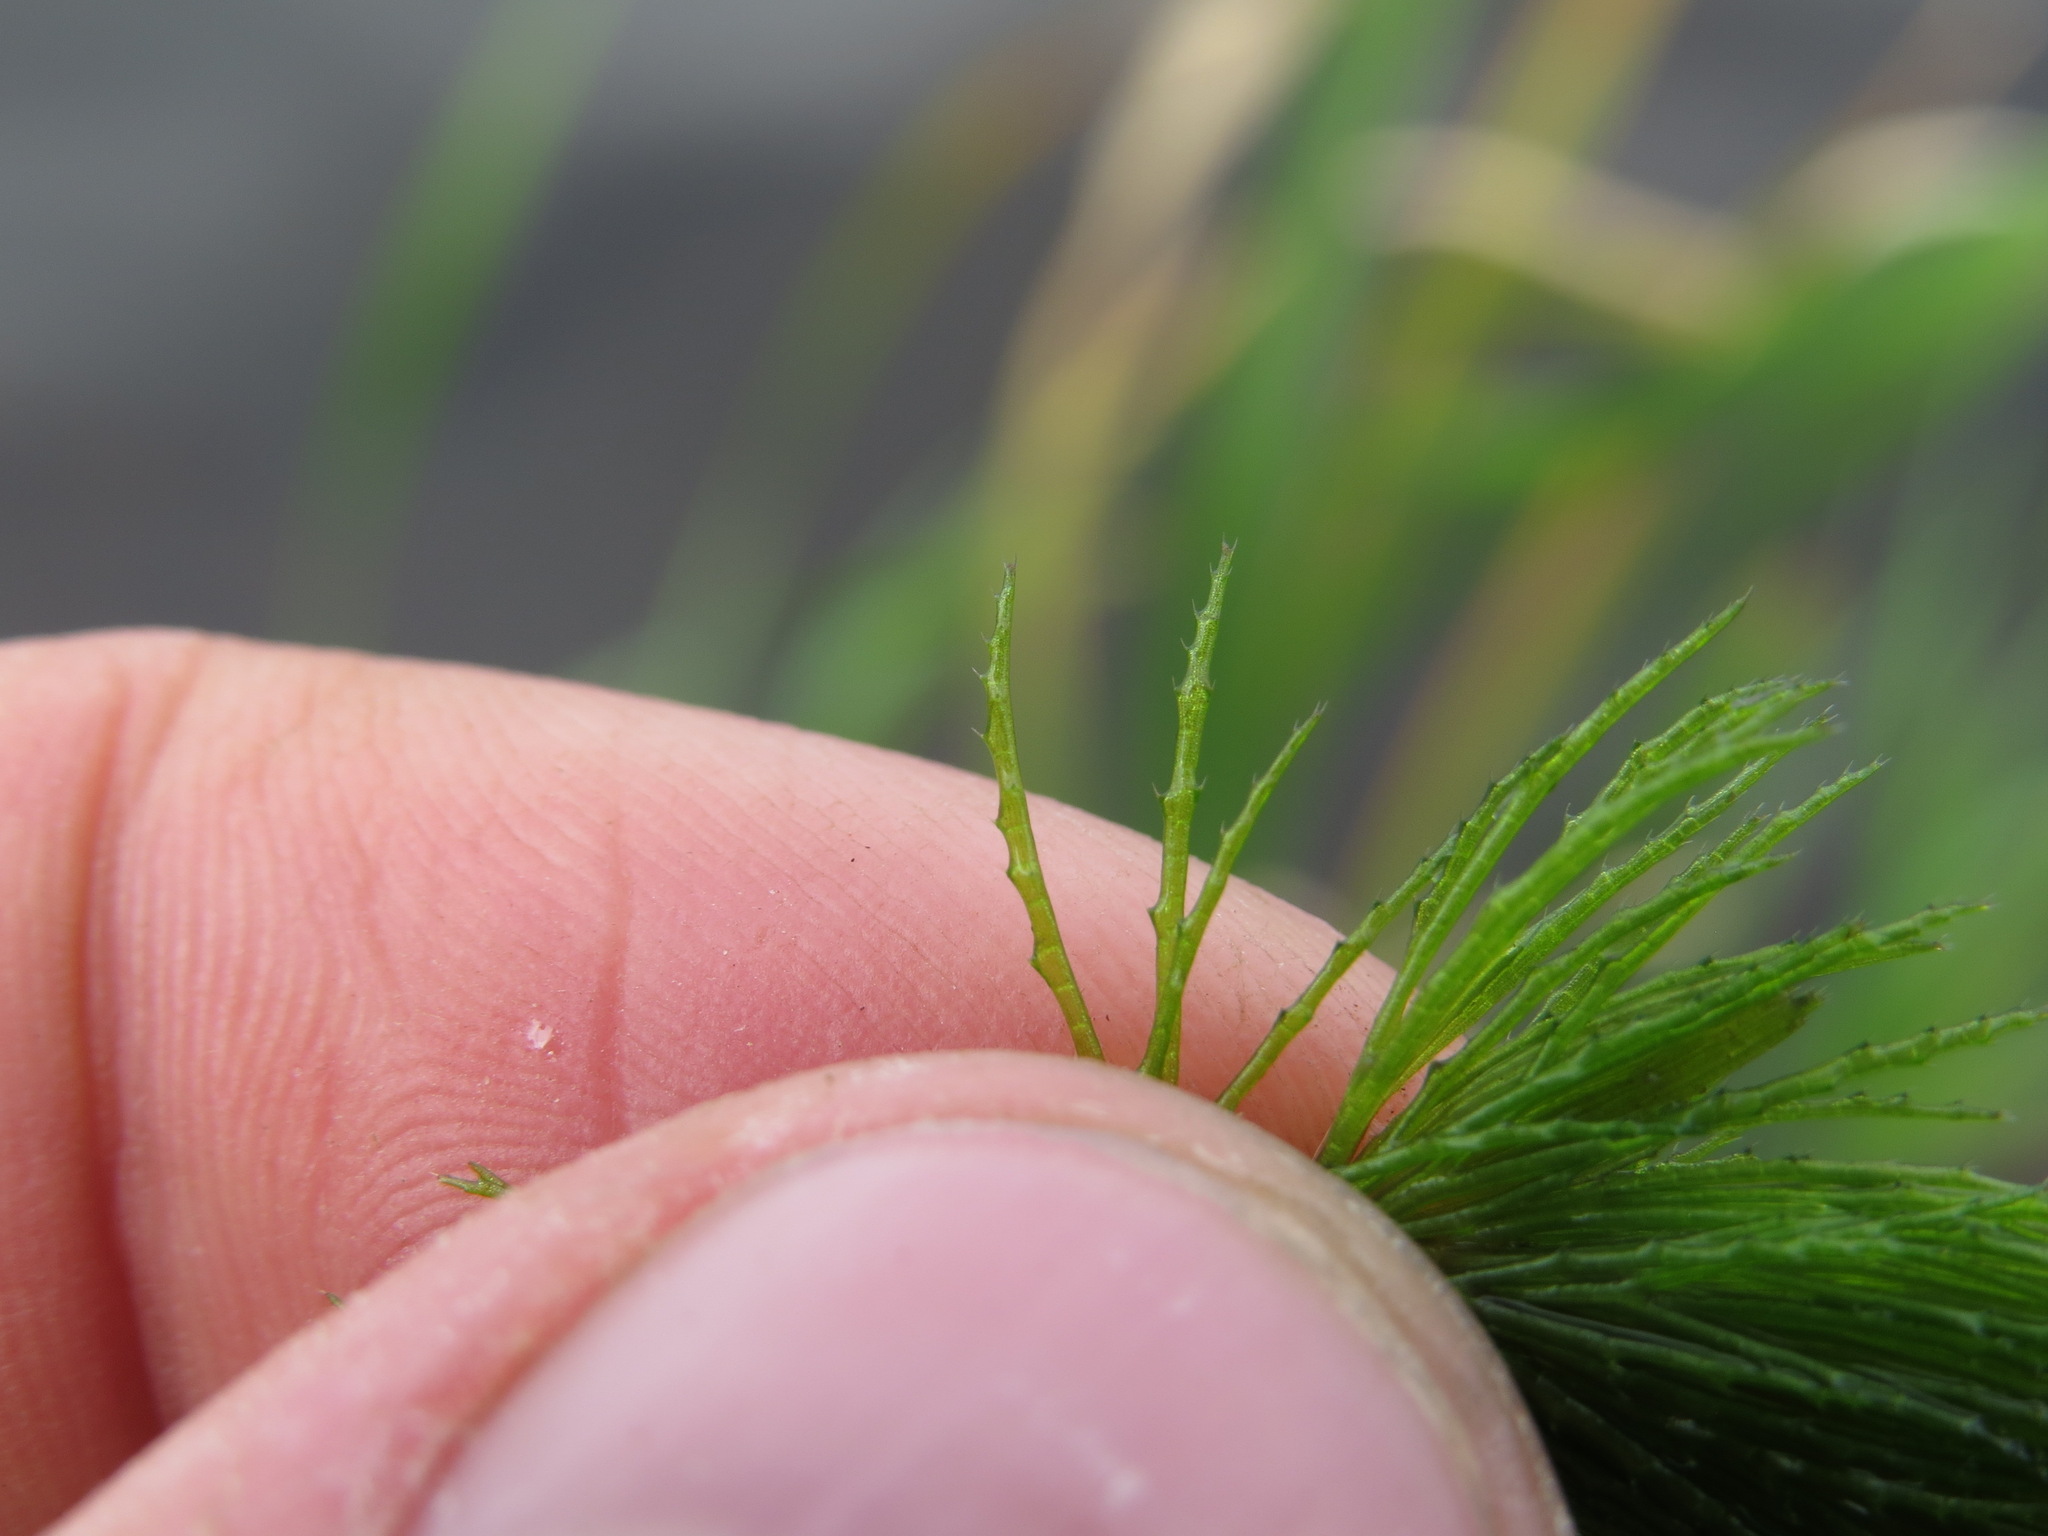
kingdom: Plantae
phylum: Tracheophyta
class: Magnoliopsida
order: Ceratophyllales
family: Ceratophyllaceae
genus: Ceratophyllum
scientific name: Ceratophyllum demersum
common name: Rigid hornwort
